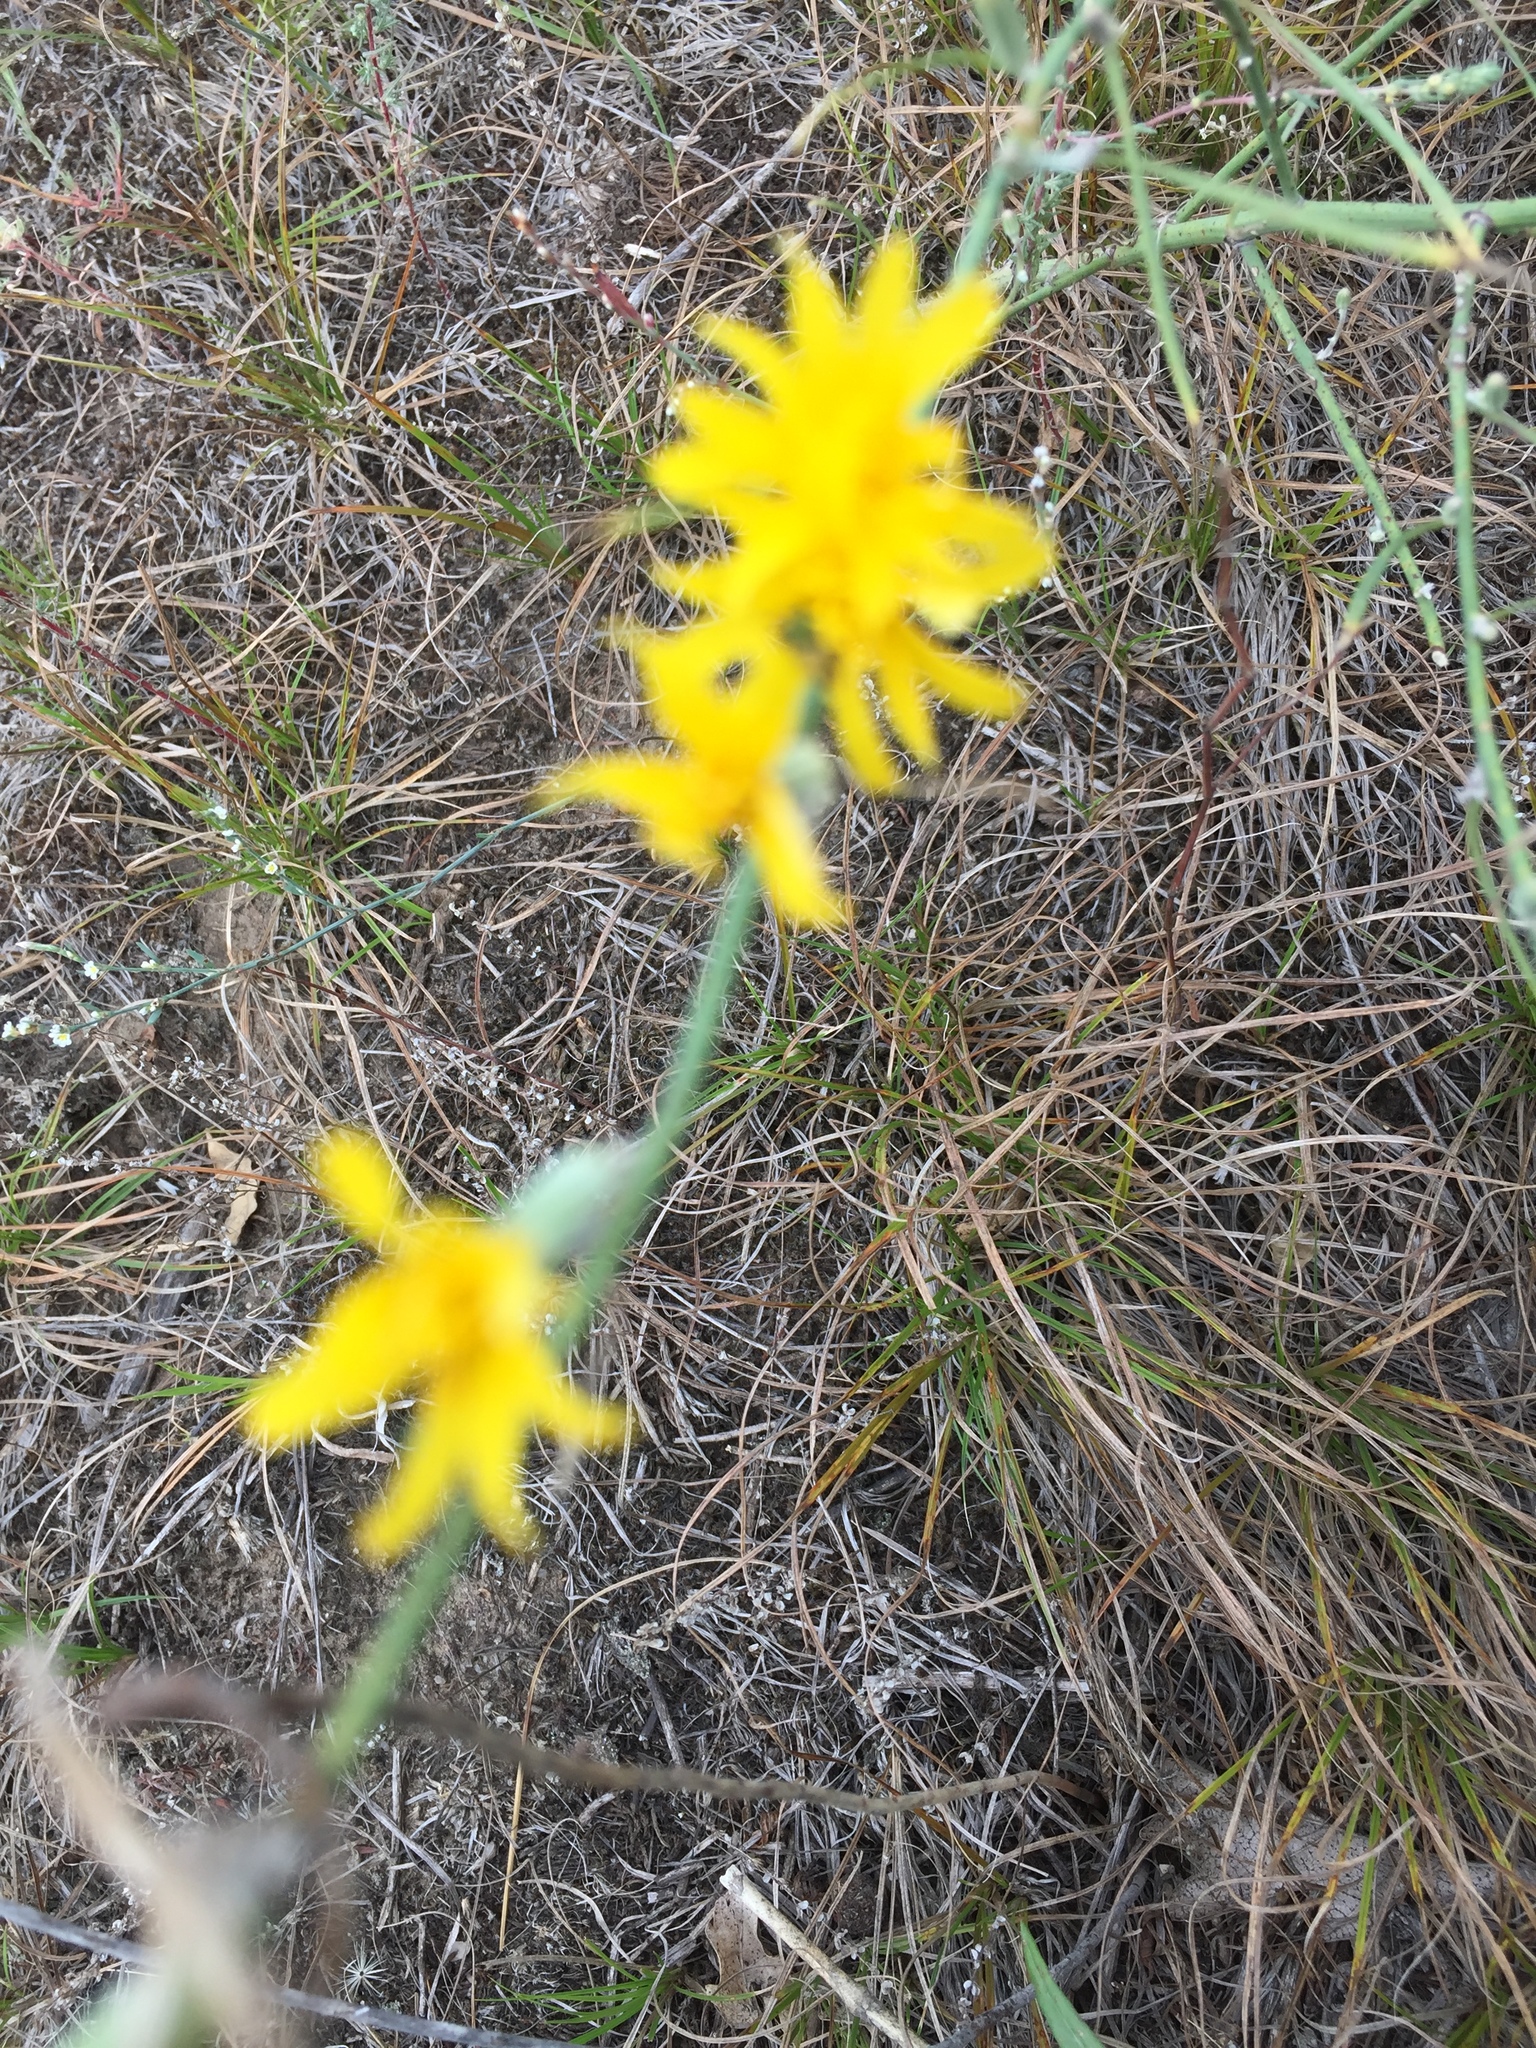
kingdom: Plantae
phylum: Tracheophyta
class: Magnoliopsida
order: Asterales
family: Asteraceae
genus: Chondrilla
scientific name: Chondrilla juncea
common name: Skeleton weed
